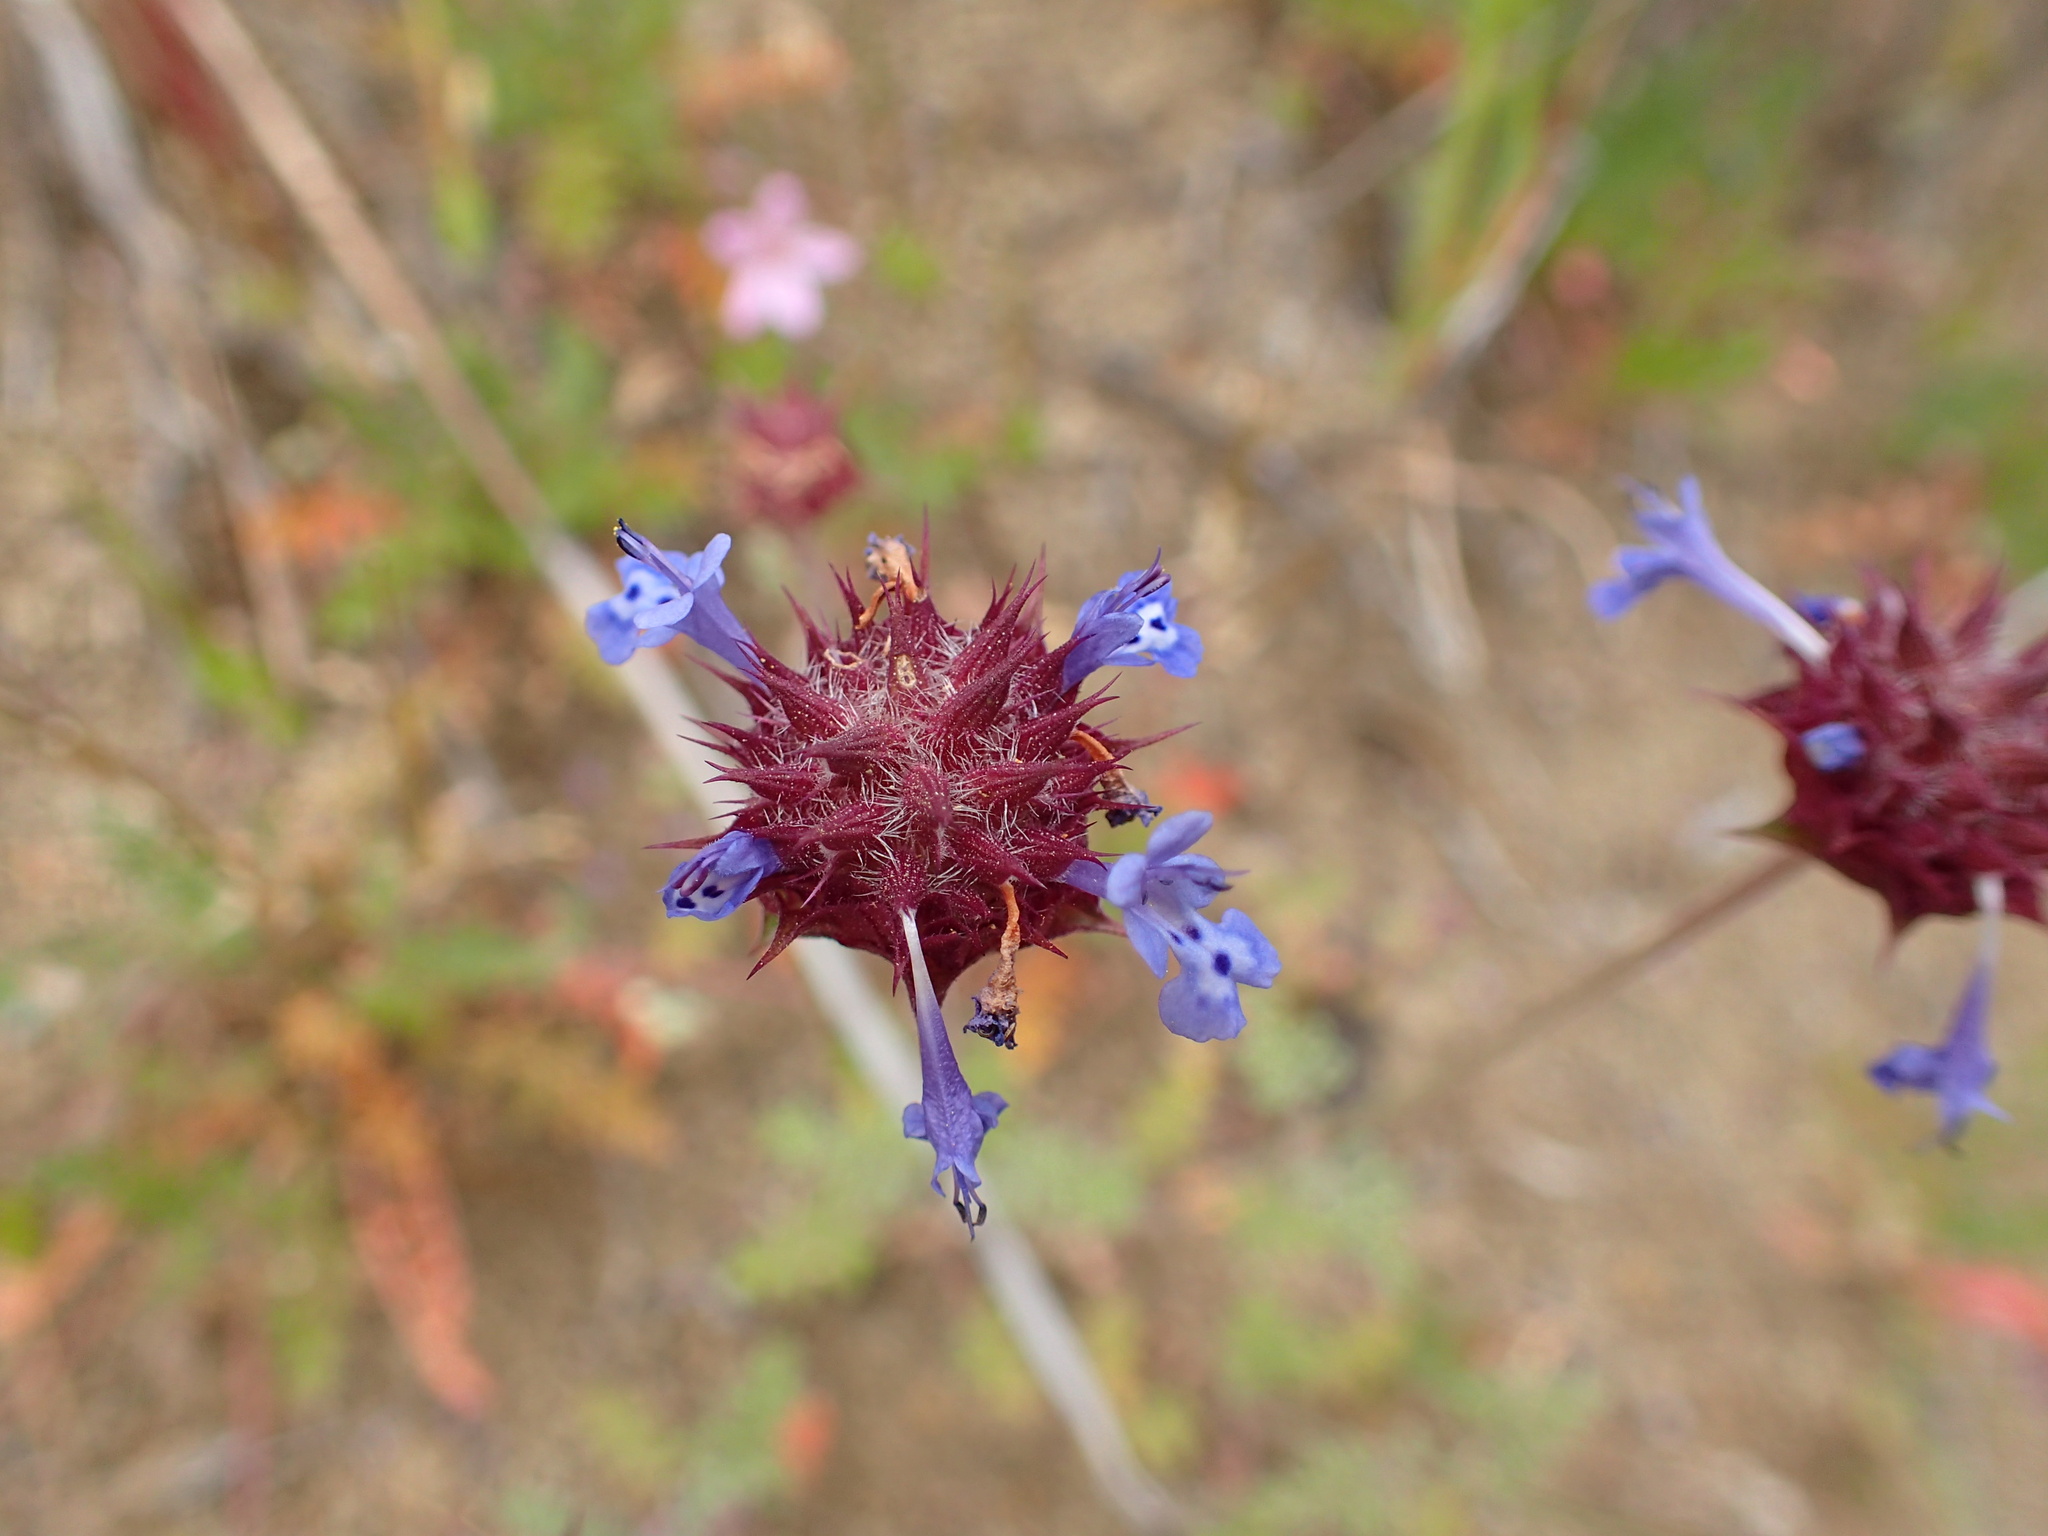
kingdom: Plantae
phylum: Tracheophyta
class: Magnoliopsida
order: Lamiales
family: Lamiaceae
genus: Salvia
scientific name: Salvia columbariae
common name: Chia
